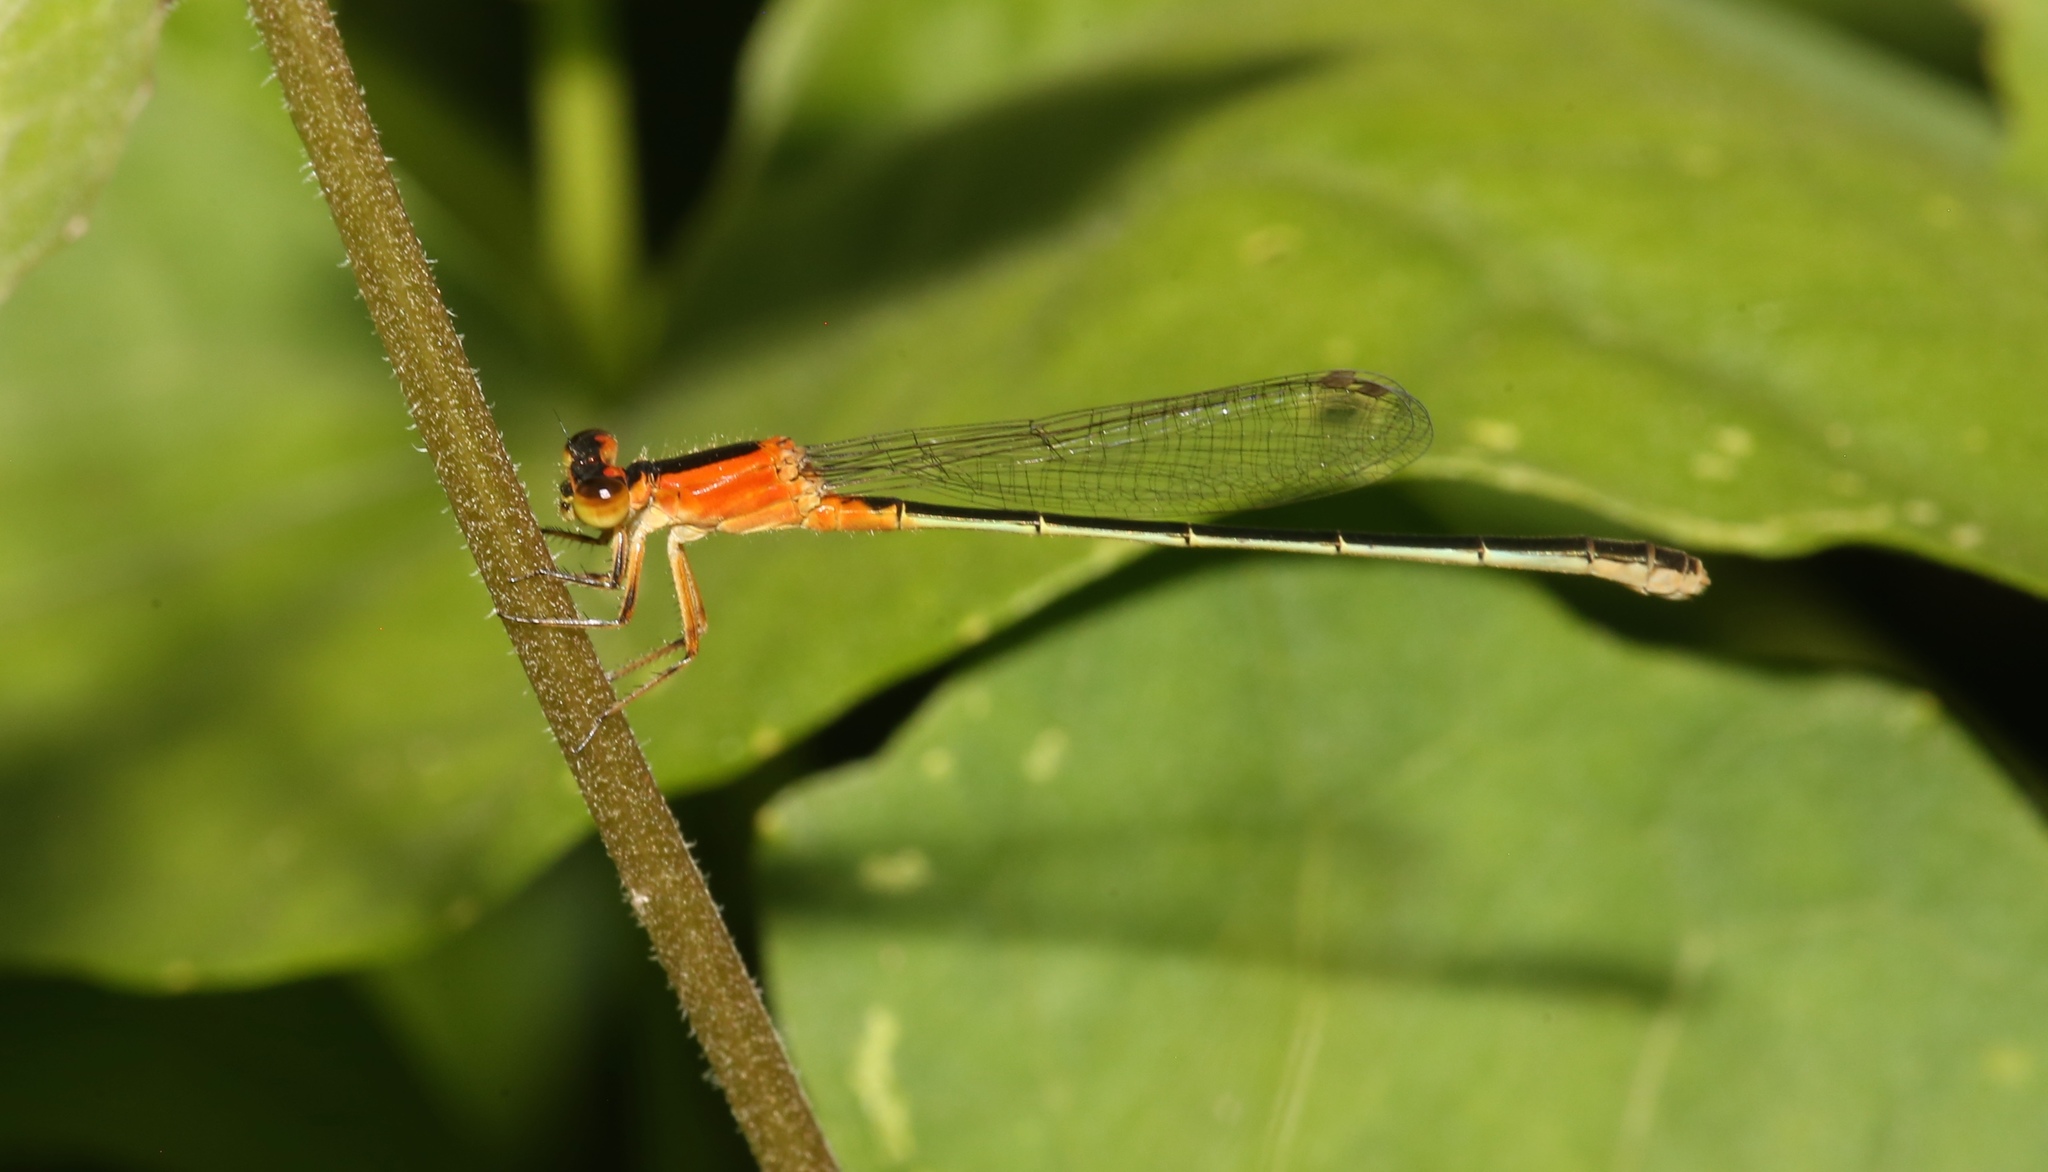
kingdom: Animalia
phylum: Arthropoda
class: Insecta
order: Odonata
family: Coenagrionidae
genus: Ischnura
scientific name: Ischnura ramburii
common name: Rambur's forktail
